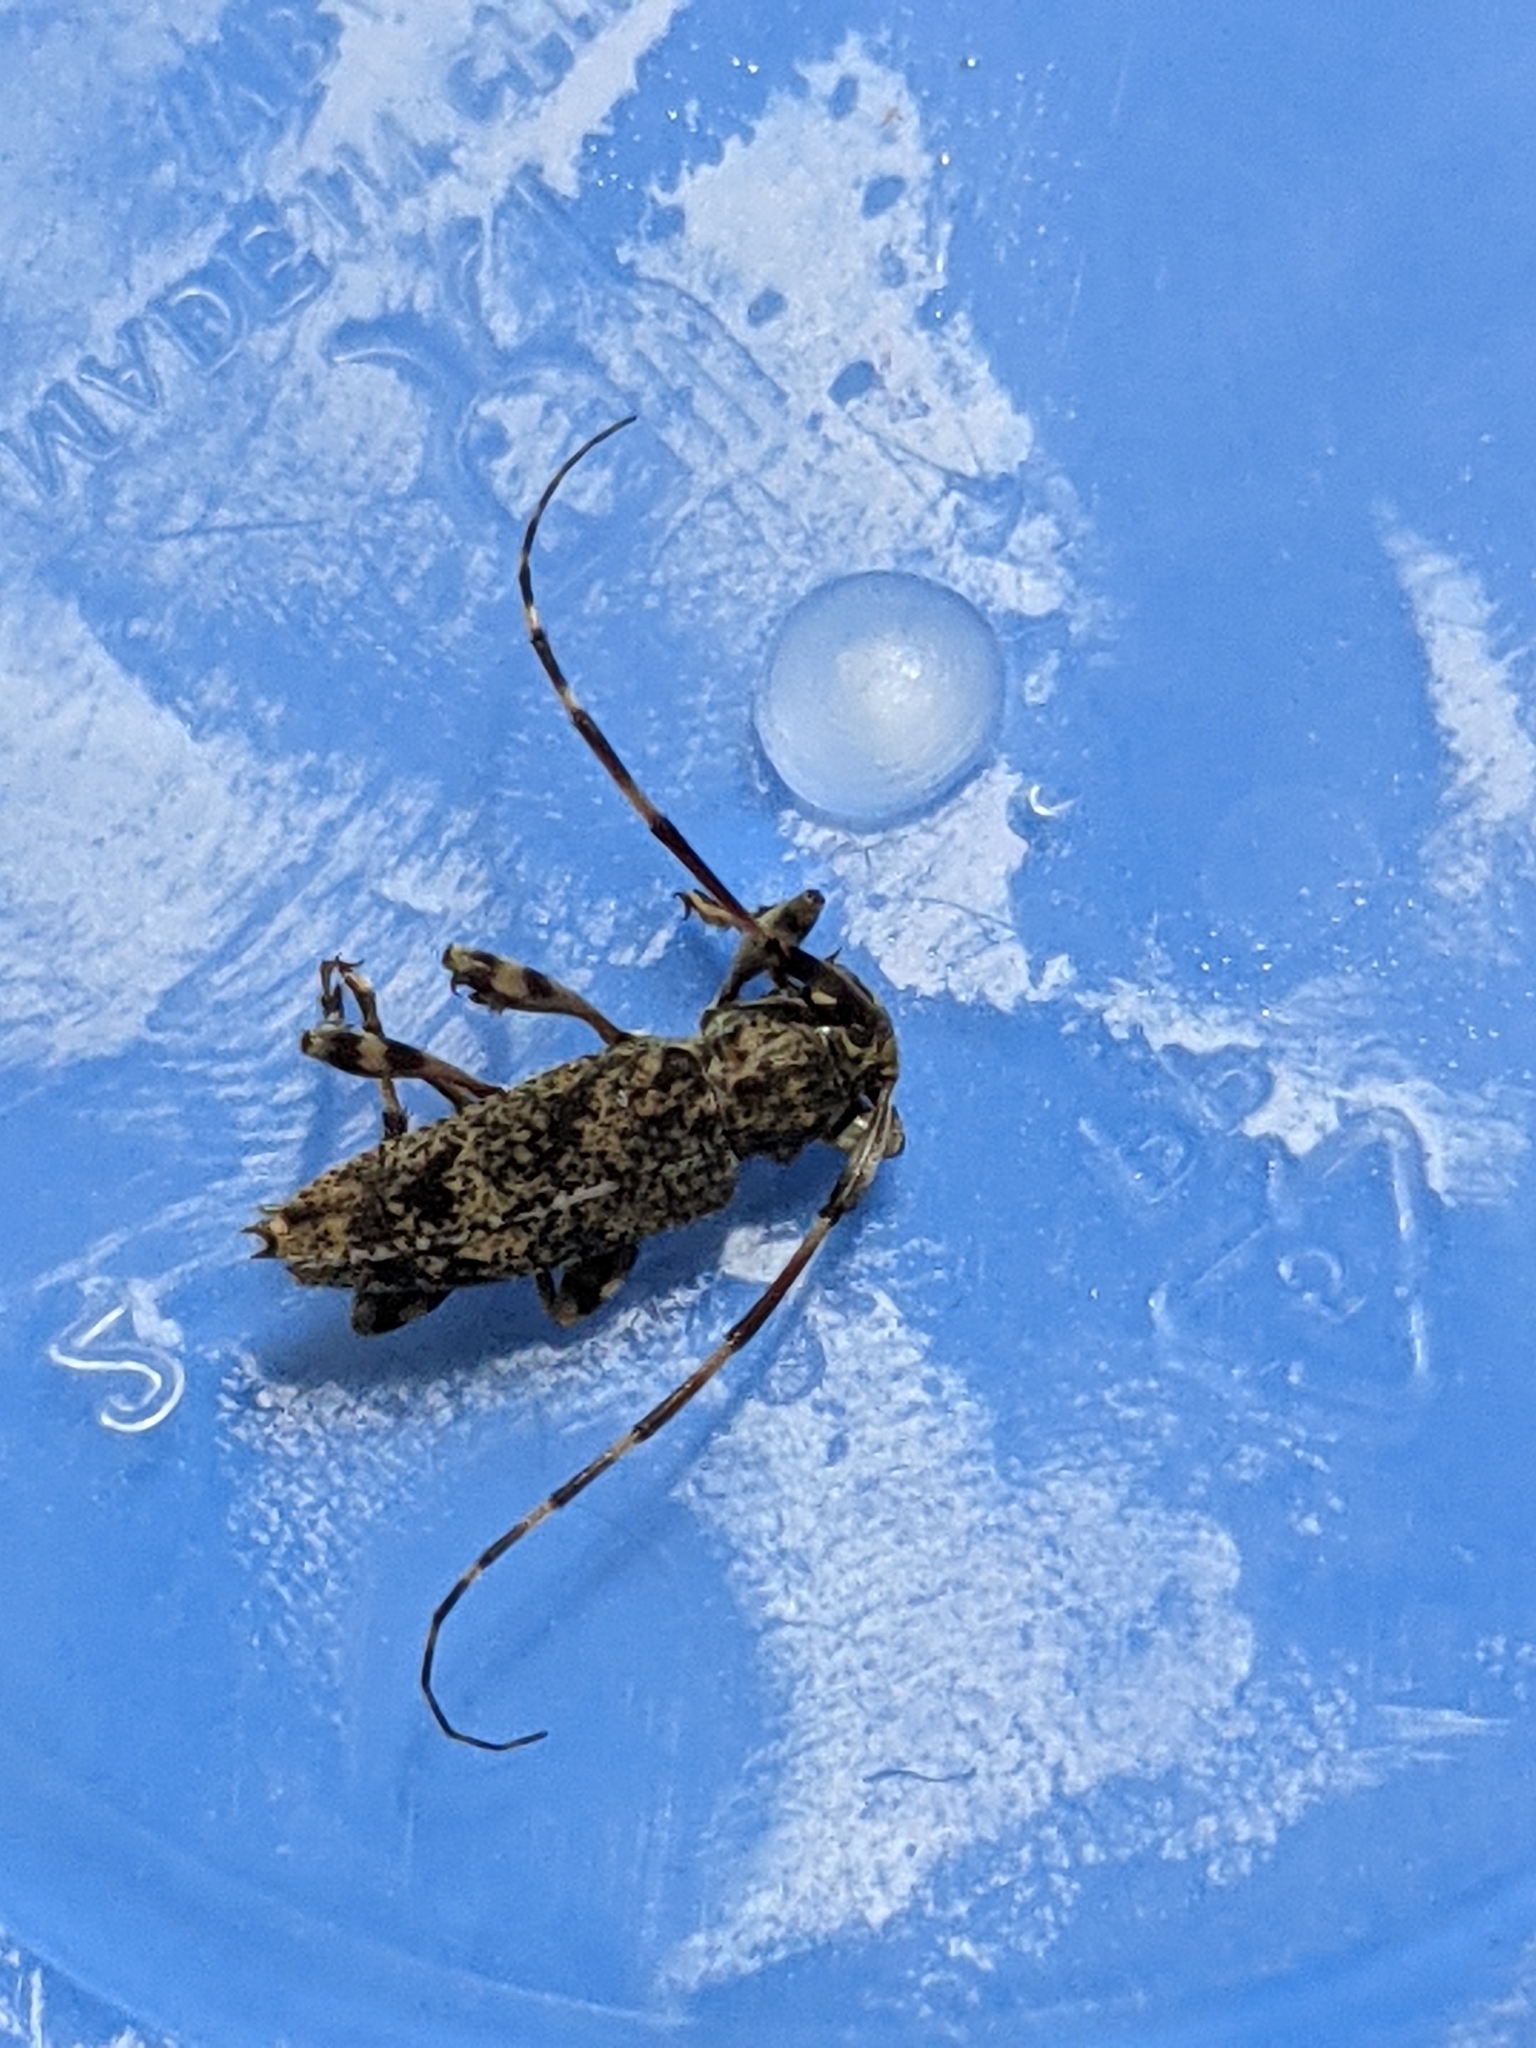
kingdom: Animalia
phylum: Arthropoda
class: Insecta
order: Coleoptera
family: Cerambycidae
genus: Graphisurus
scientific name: Graphisurus fasciatus
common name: Banded graphisurus
